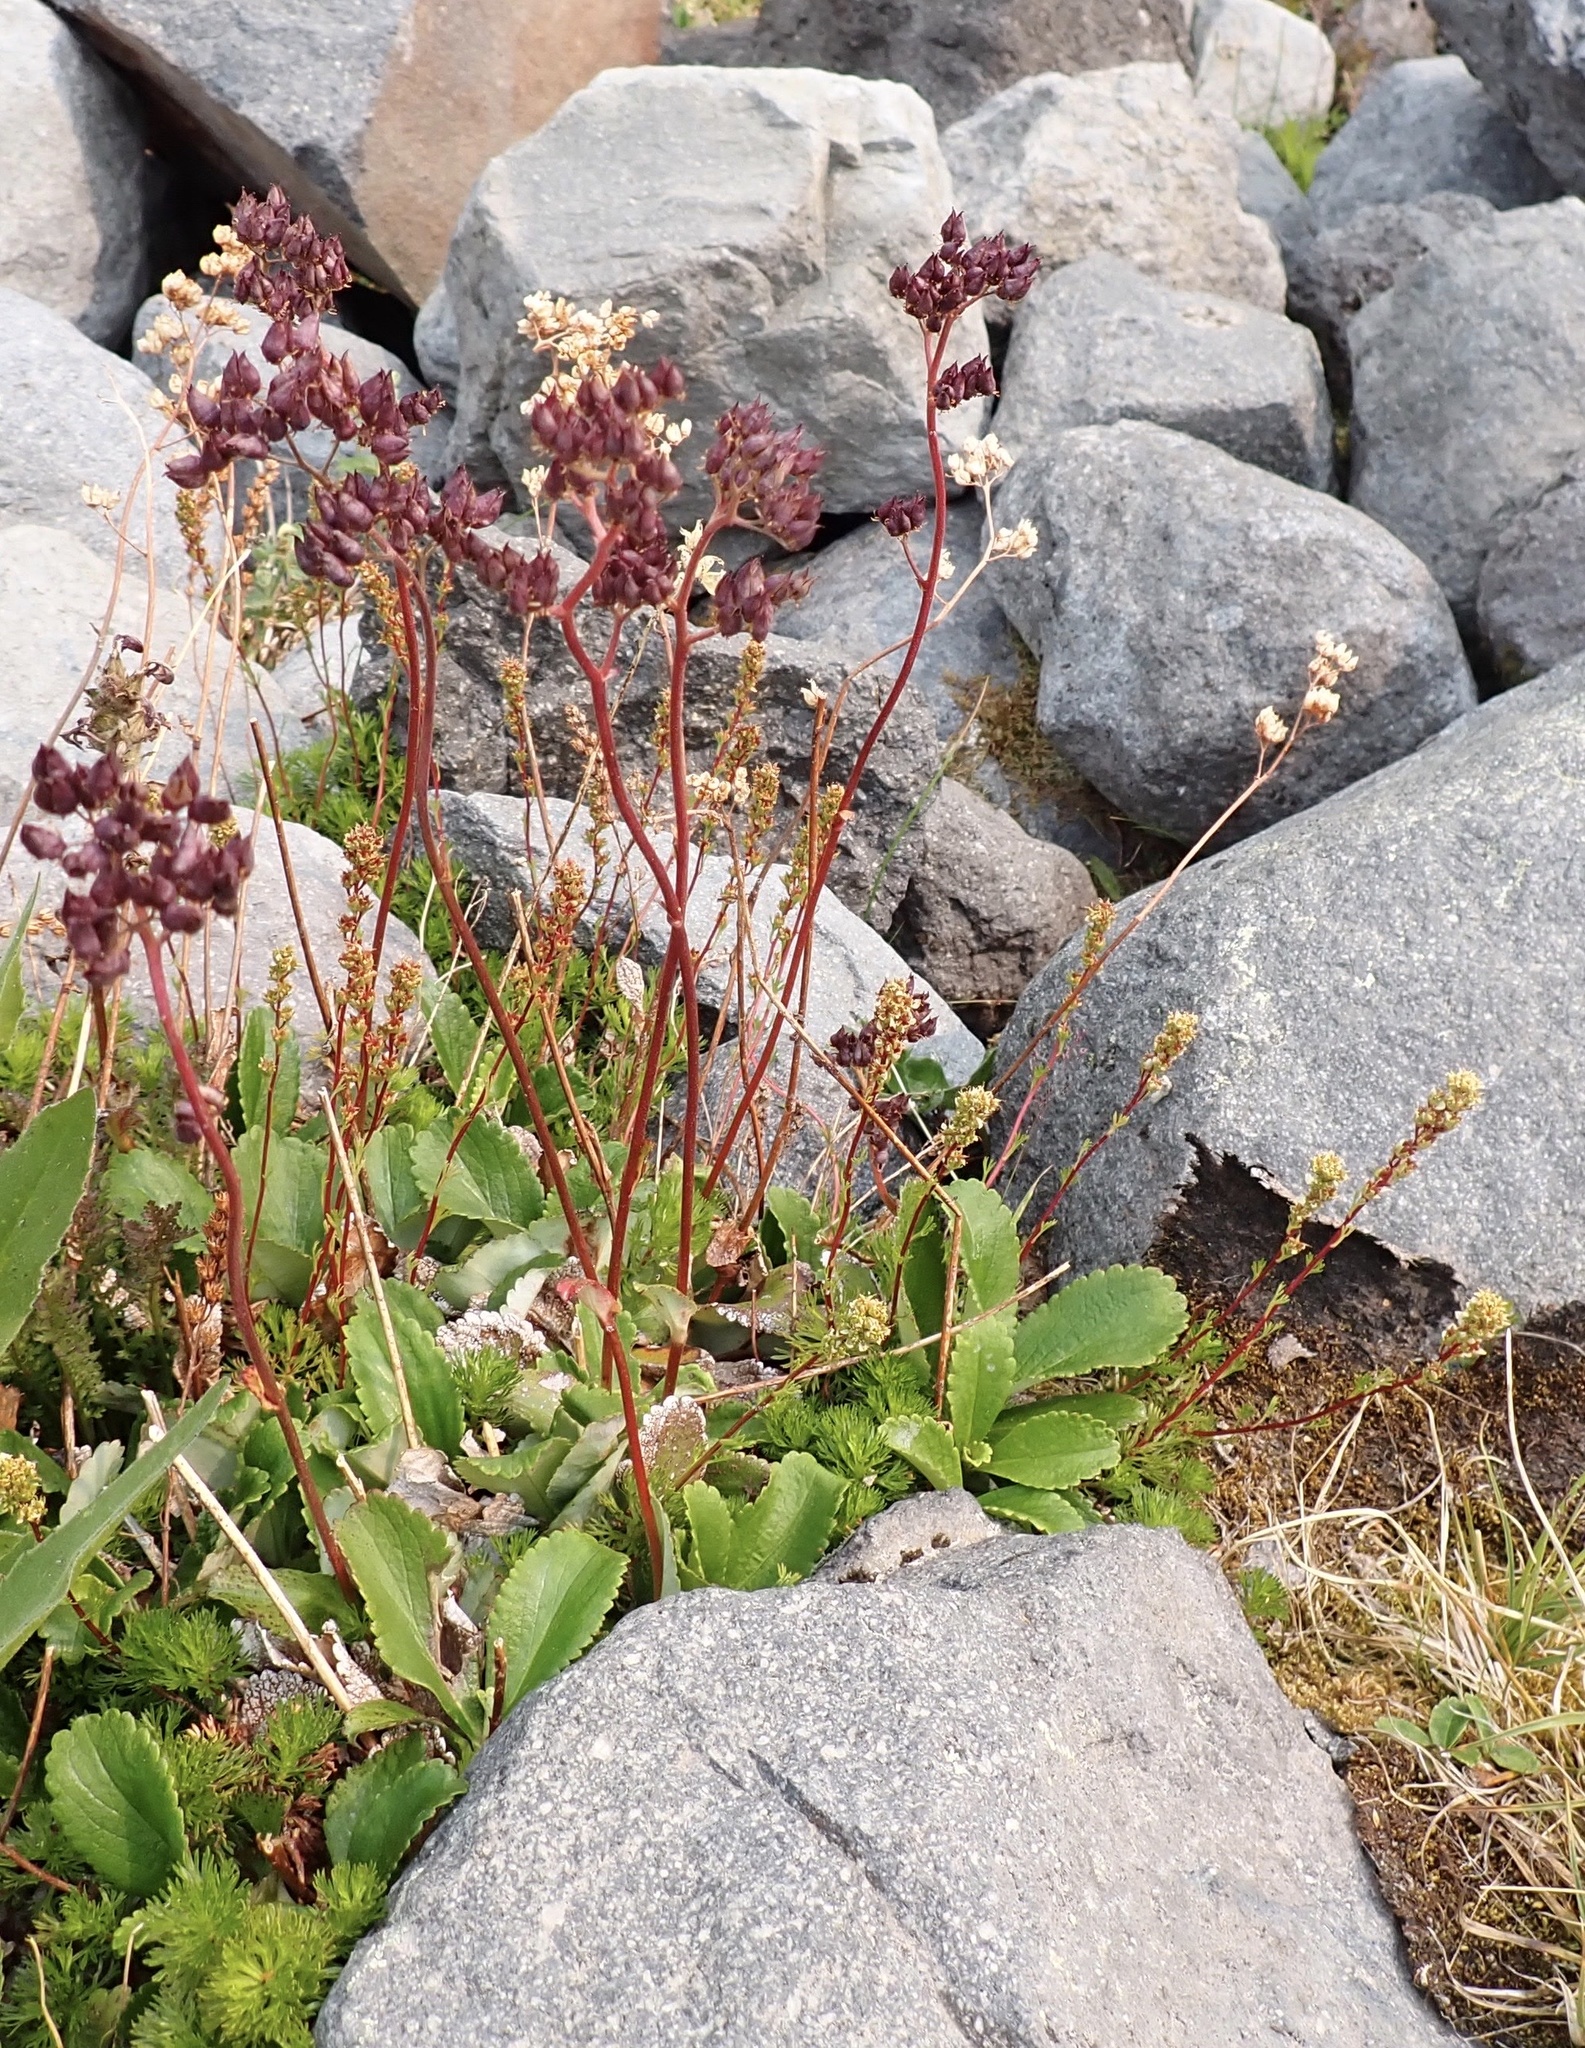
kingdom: Plantae
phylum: Tracheophyta
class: Magnoliopsida
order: Saxifragales
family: Saxifragaceae
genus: Leptarrhena
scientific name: Leptarrhena pyrolifolia
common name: Leatherleaf-saxifrage
